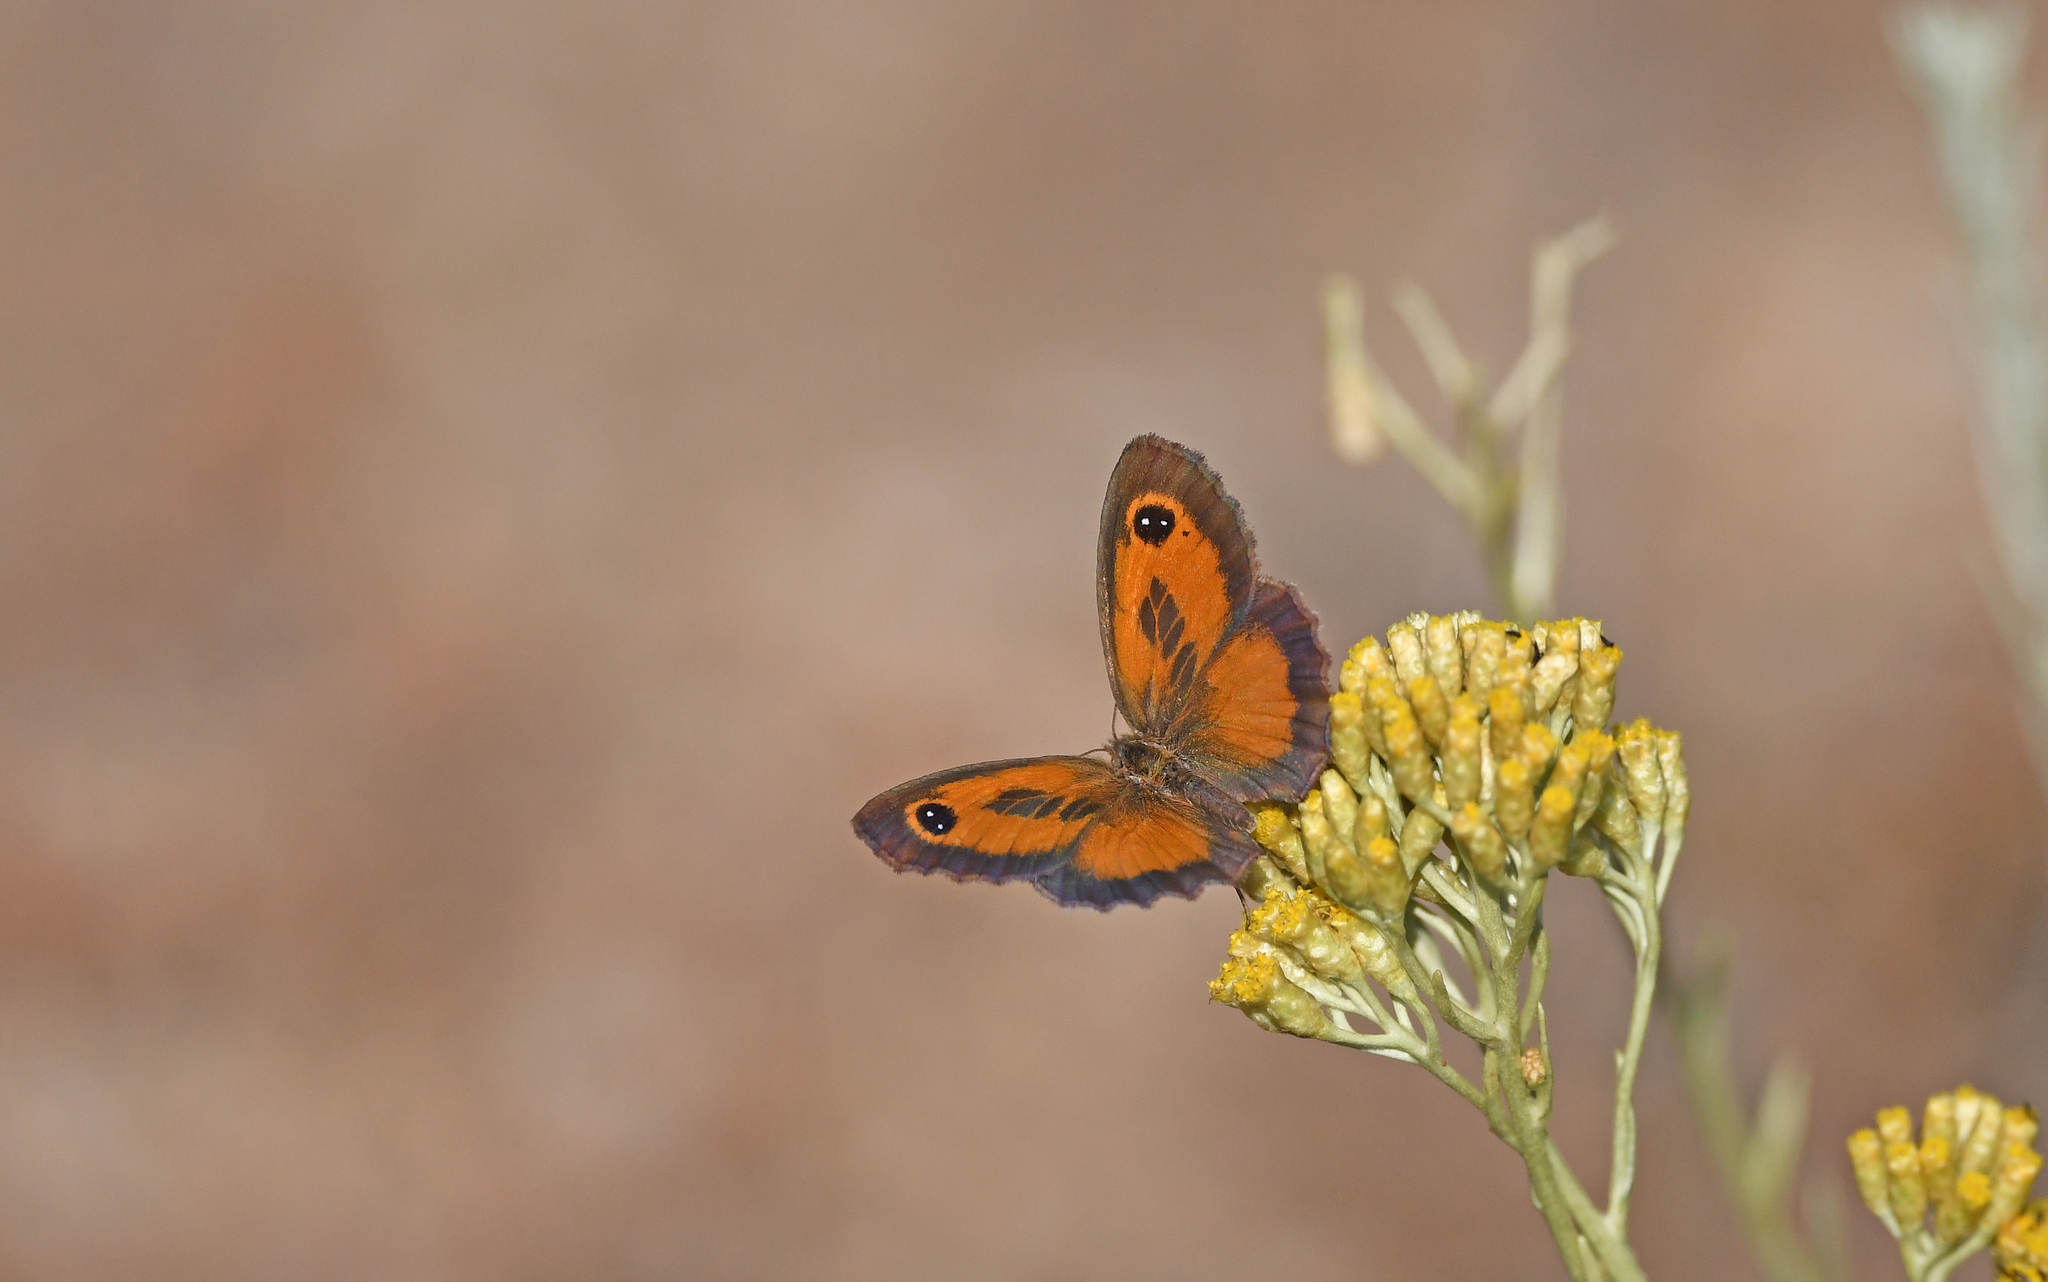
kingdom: Animalia
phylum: Arthropoda
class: Insecta
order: Lepidoptera
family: Nymphalidae
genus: Pyronia
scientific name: Pyronia cecilia
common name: Southern gatekeeper
